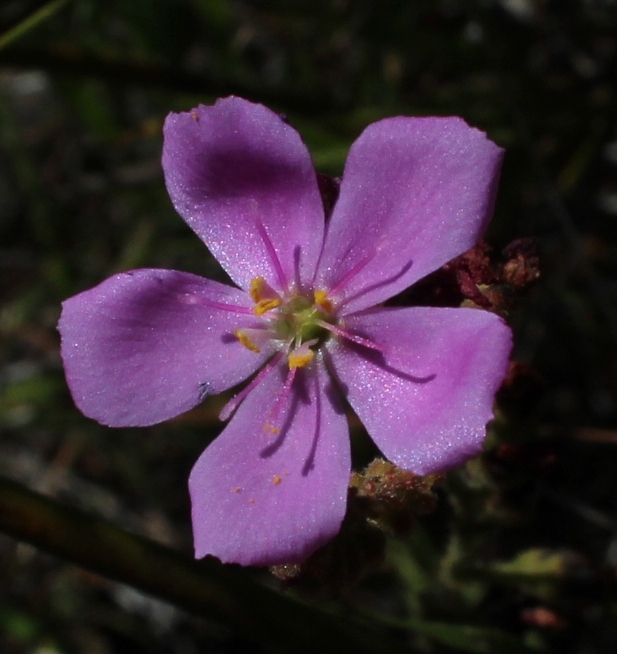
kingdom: Plantae
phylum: Tracheophyta
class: Magnoliopsida
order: Caryophyllales
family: Droseraceae
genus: Drosera
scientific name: Drosera capensis
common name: Cape sundew
